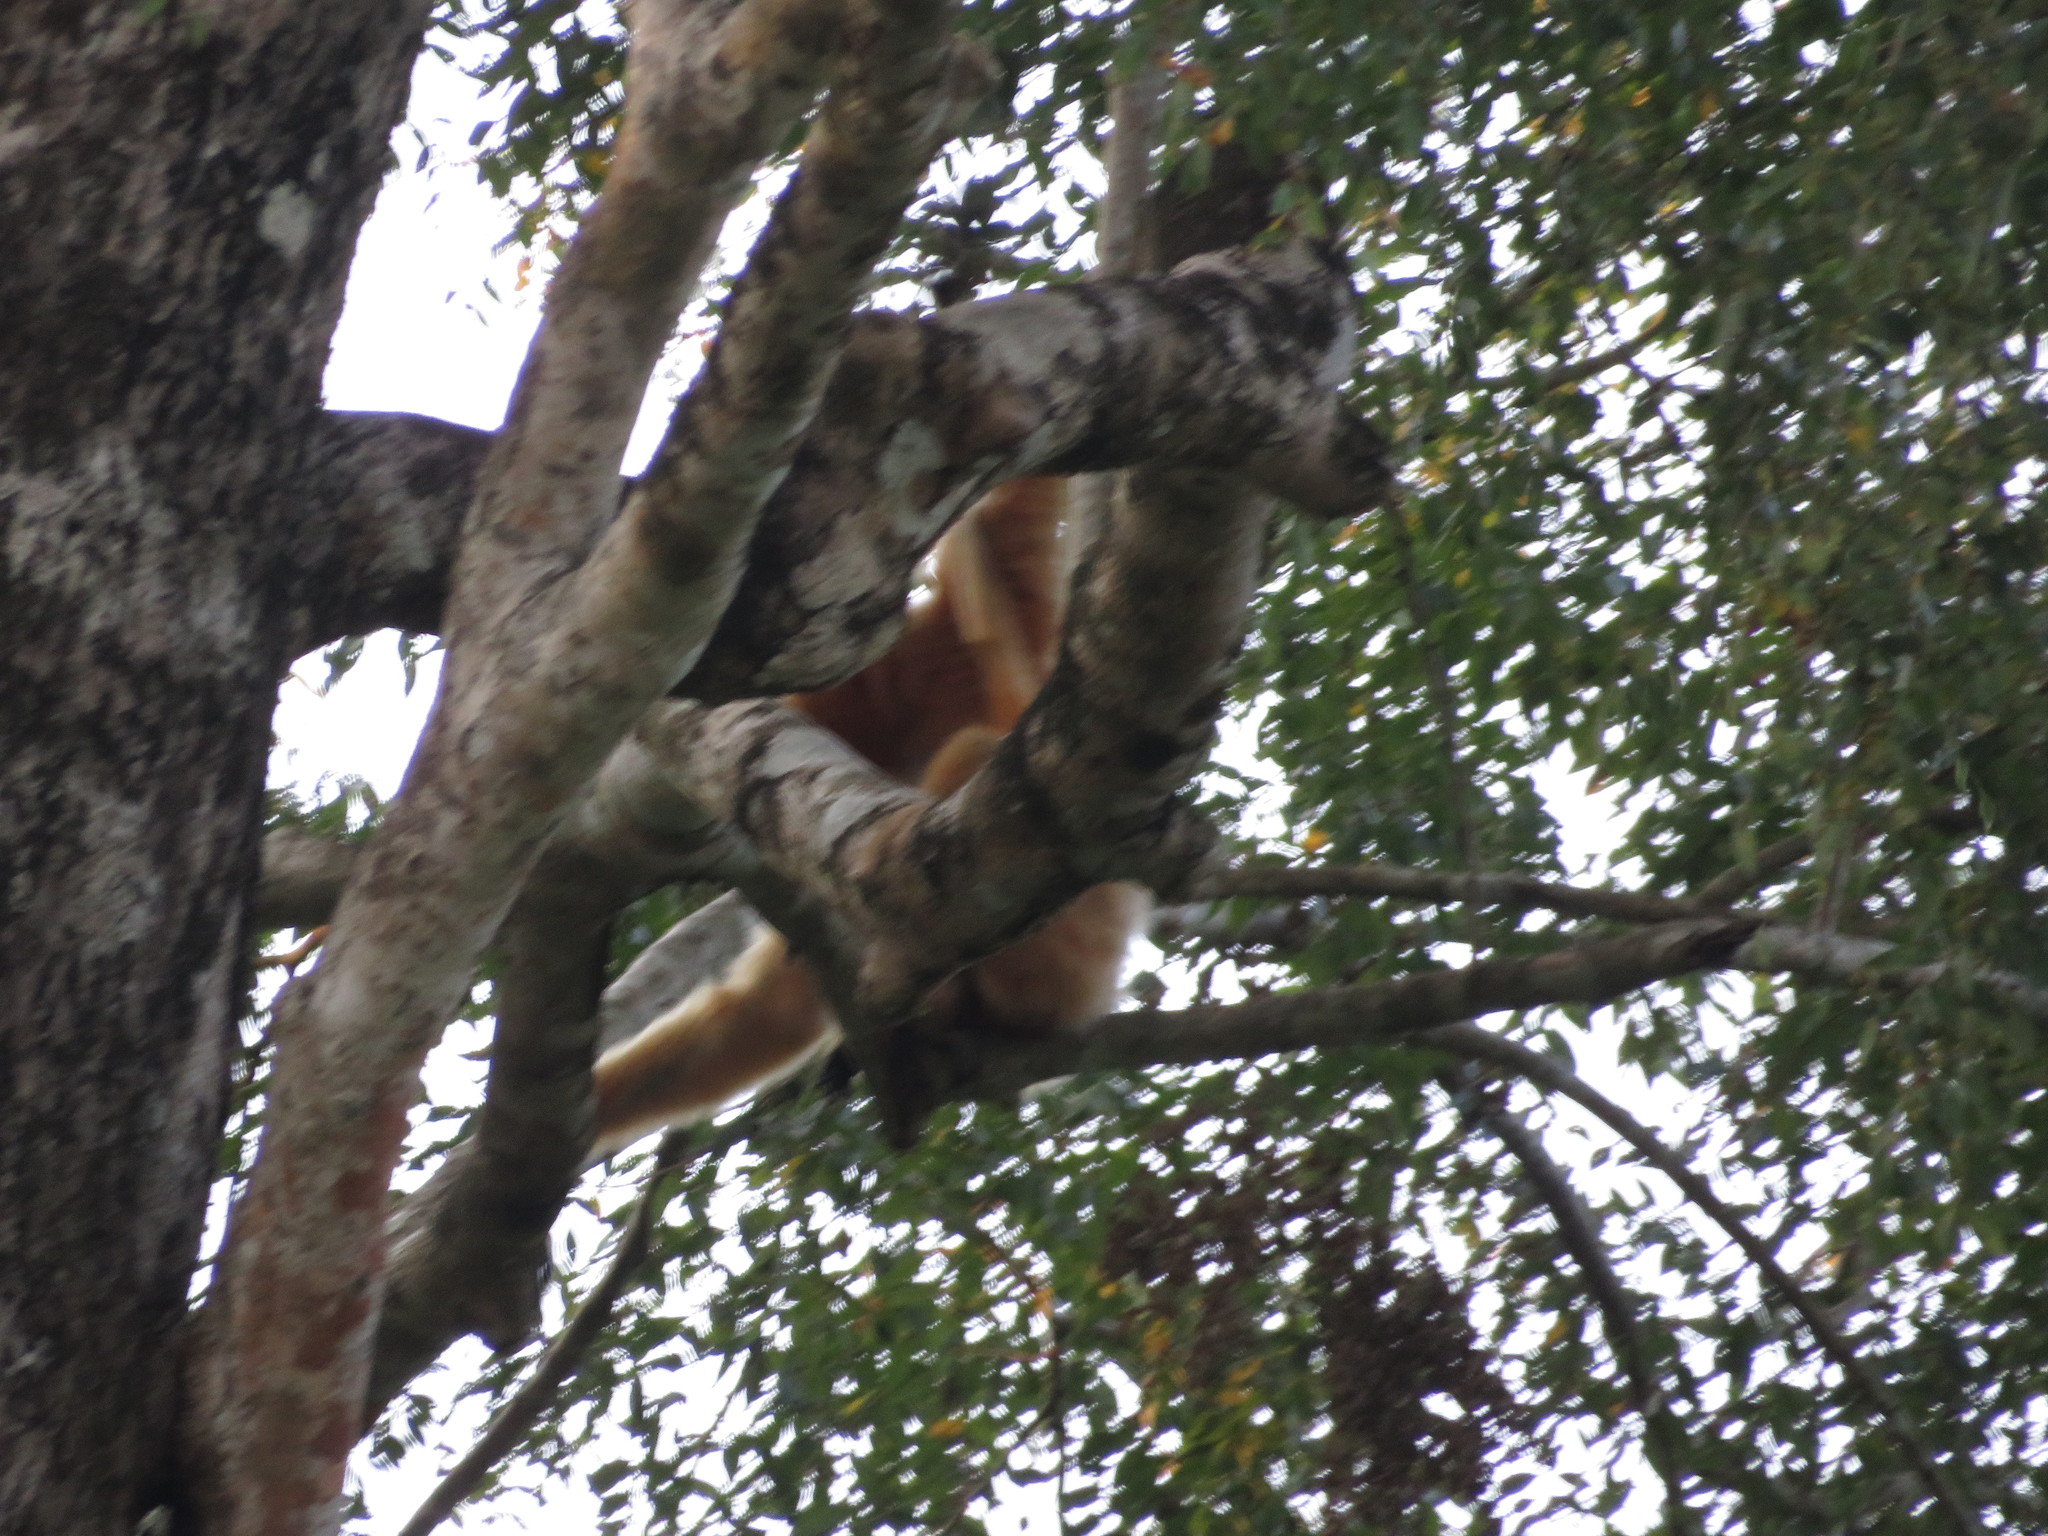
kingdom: Animalia
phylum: Chordata
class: Mammalia
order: Primates
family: Hylobatidae
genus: Nomascus
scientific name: Nomascus gabriellae
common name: Red-cheeked gibbon
